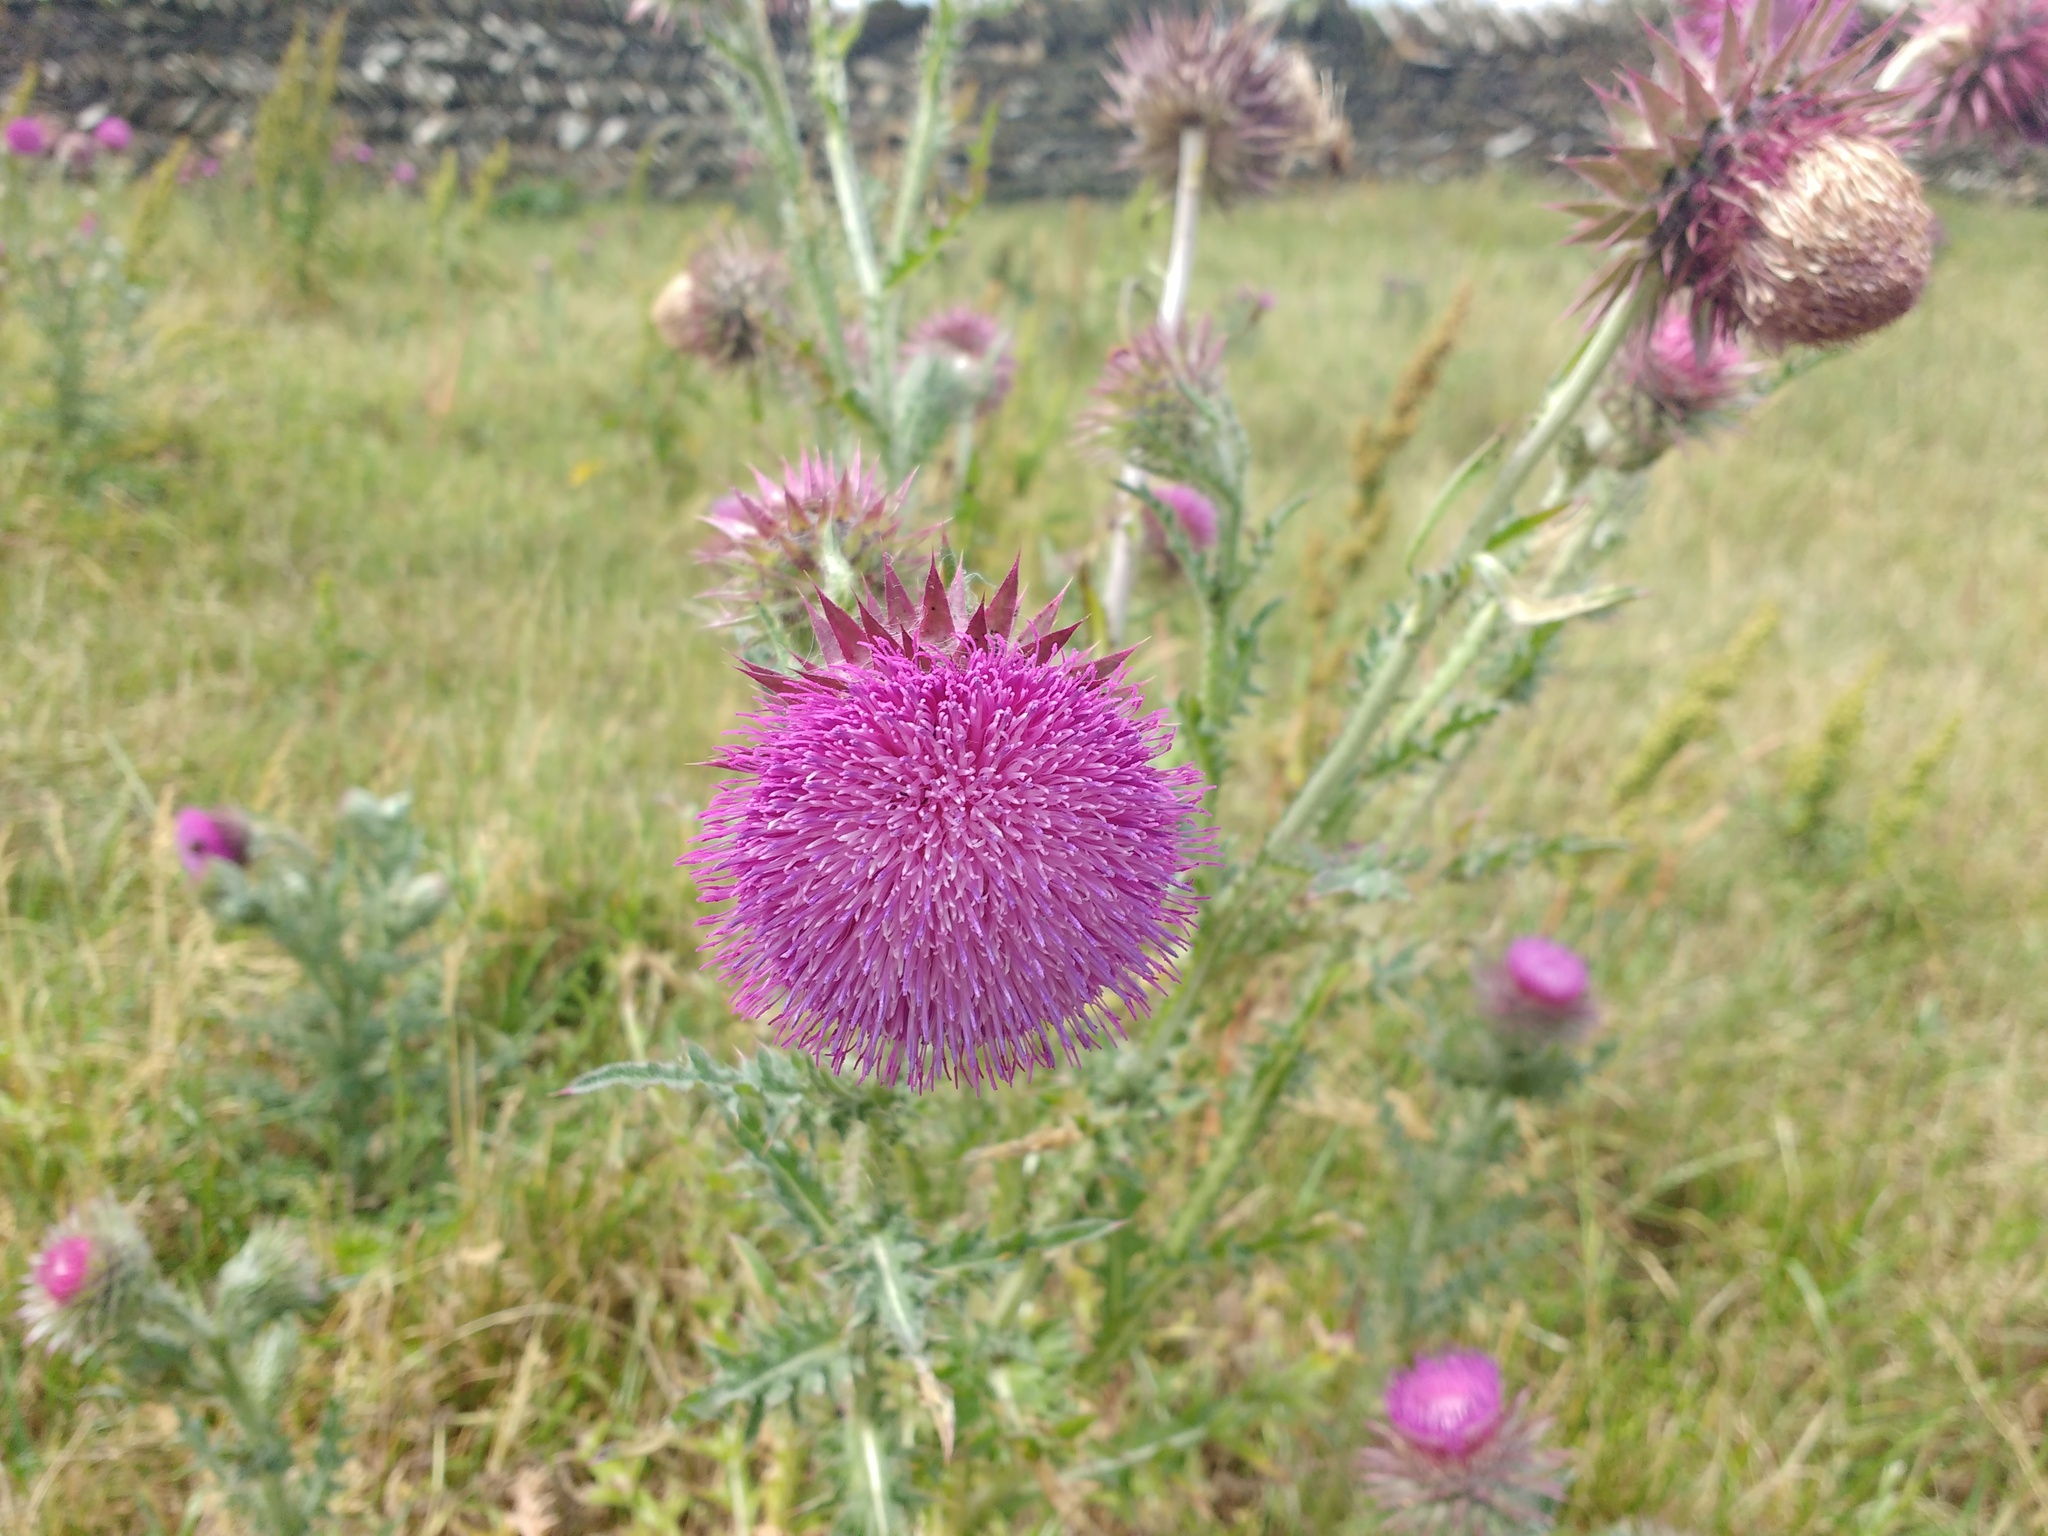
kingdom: Plantae
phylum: Tracheophyta
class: Magnoliopsida
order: Asterales
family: Asteraceae
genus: Carduus
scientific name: Carduus nutans
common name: Musk thistle
